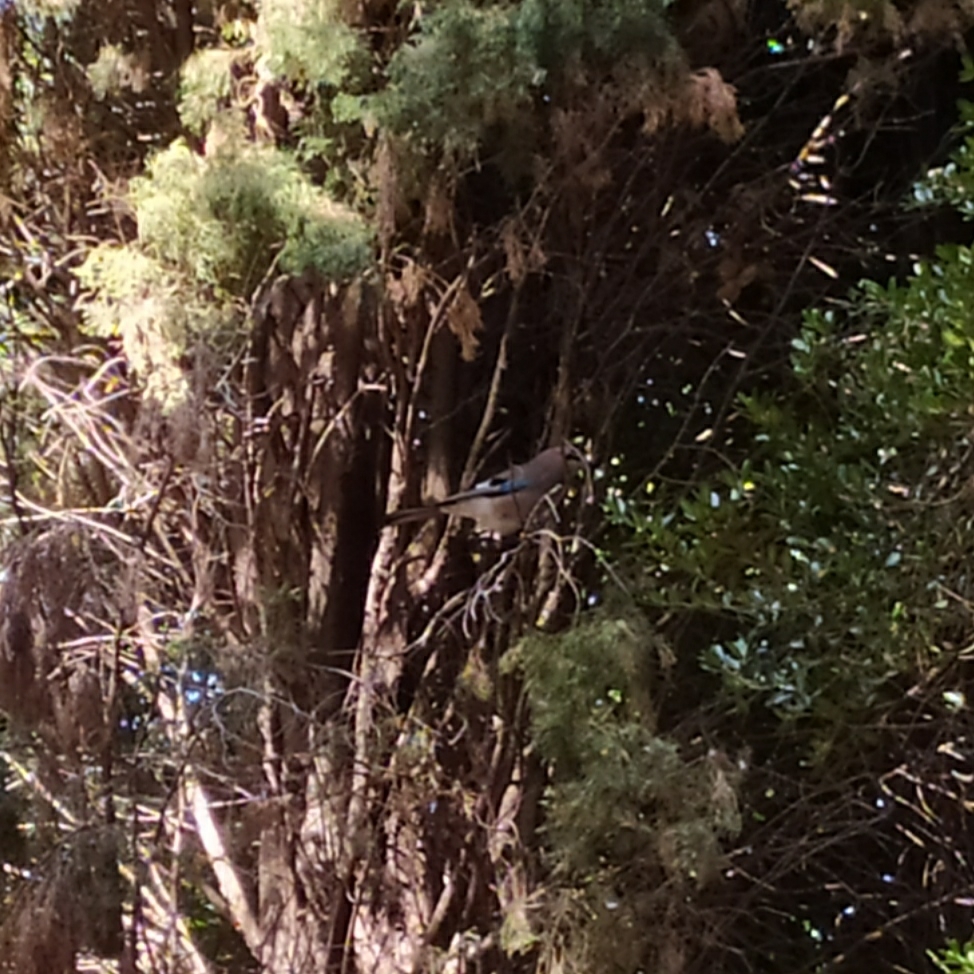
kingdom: Animalia
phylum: Chordata
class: Aves
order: Passeriformes
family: Corvidae
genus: Garrulus
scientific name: Garrulus glandarius
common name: Eurasian jay
